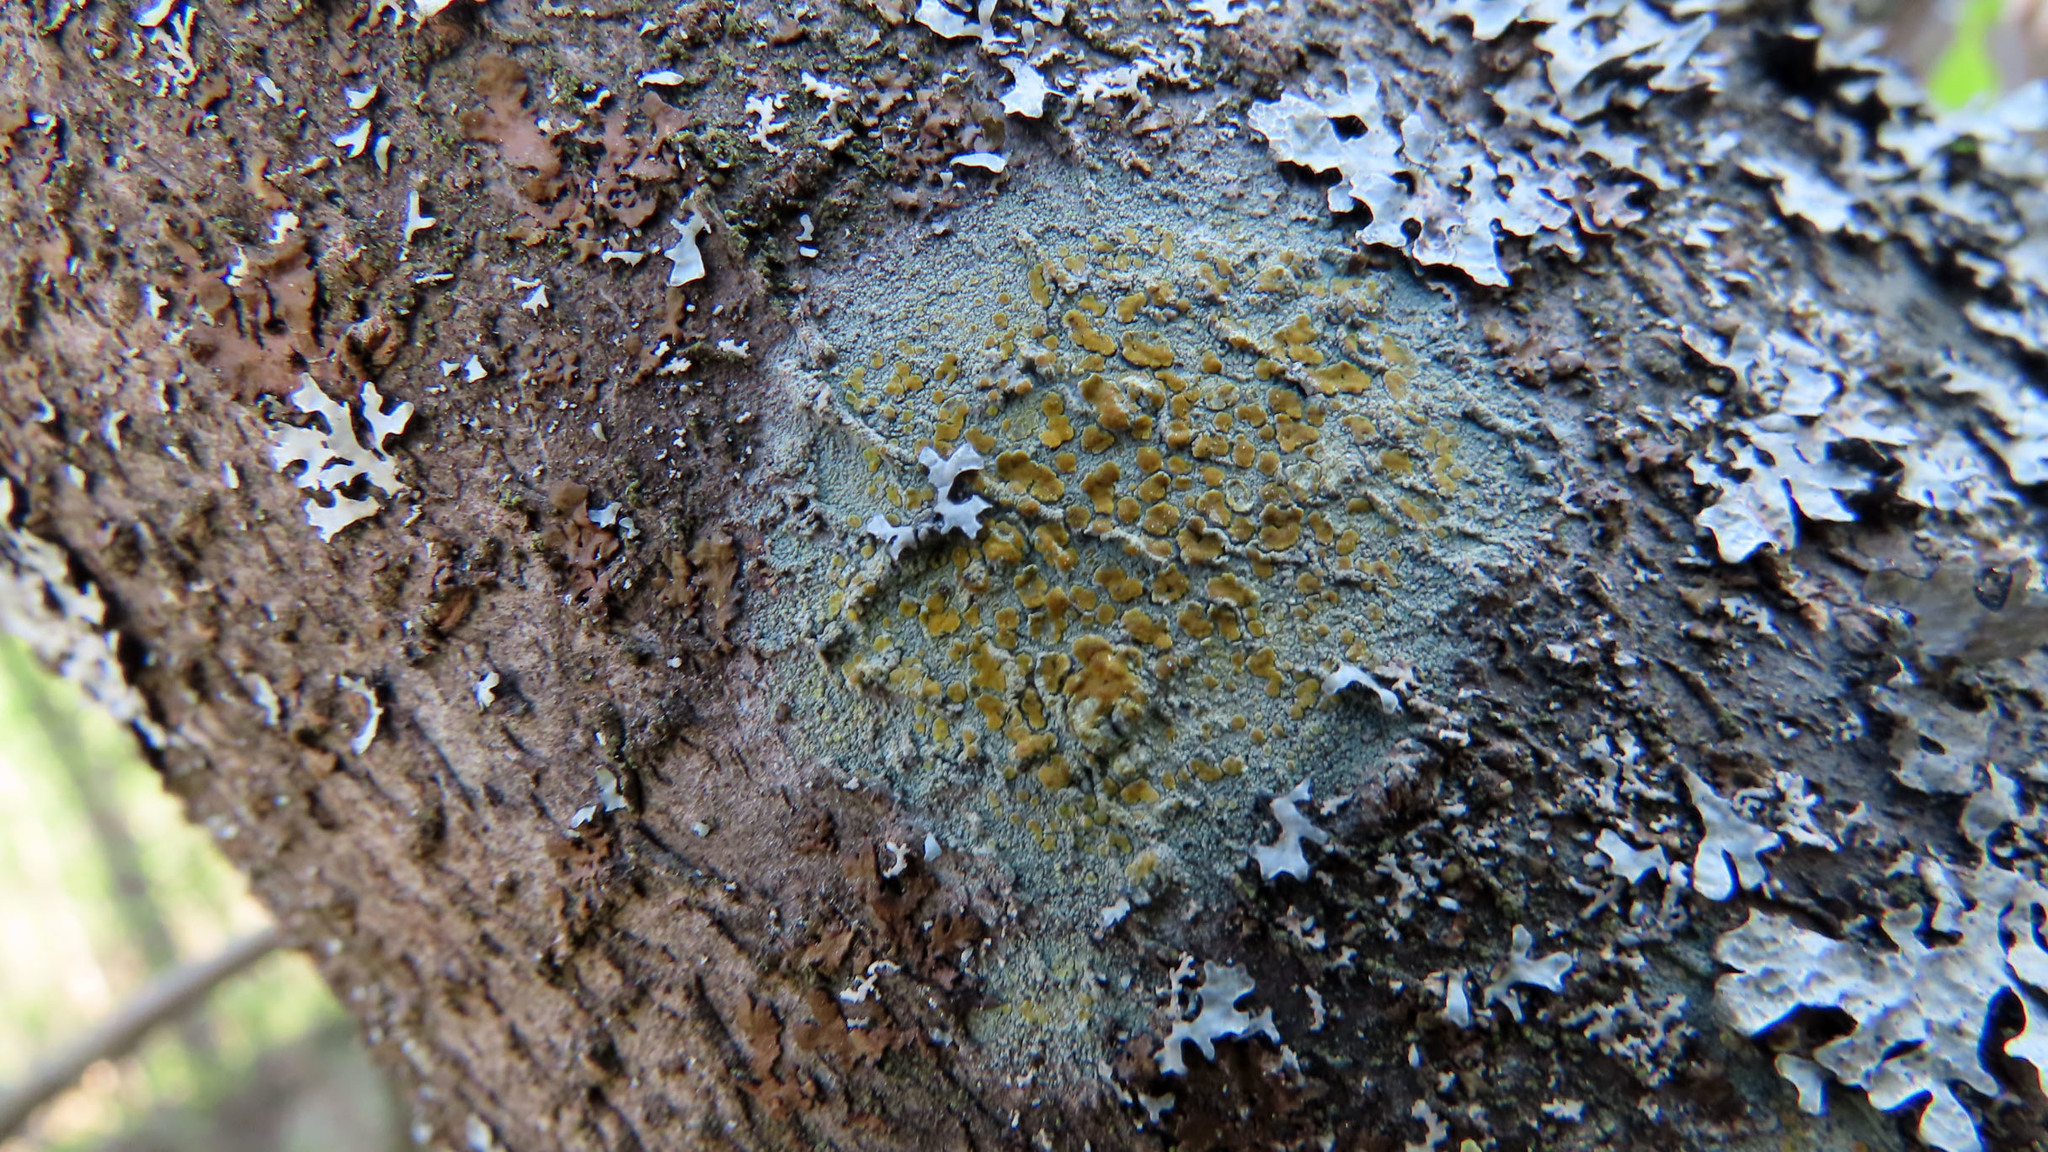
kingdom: Fungi
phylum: Ascomycota
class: Lecanoromycetes
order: Lecanorales
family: Lecanoraceae
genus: Lecanora
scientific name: Lecanora symmicta
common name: Fused rim lichen
